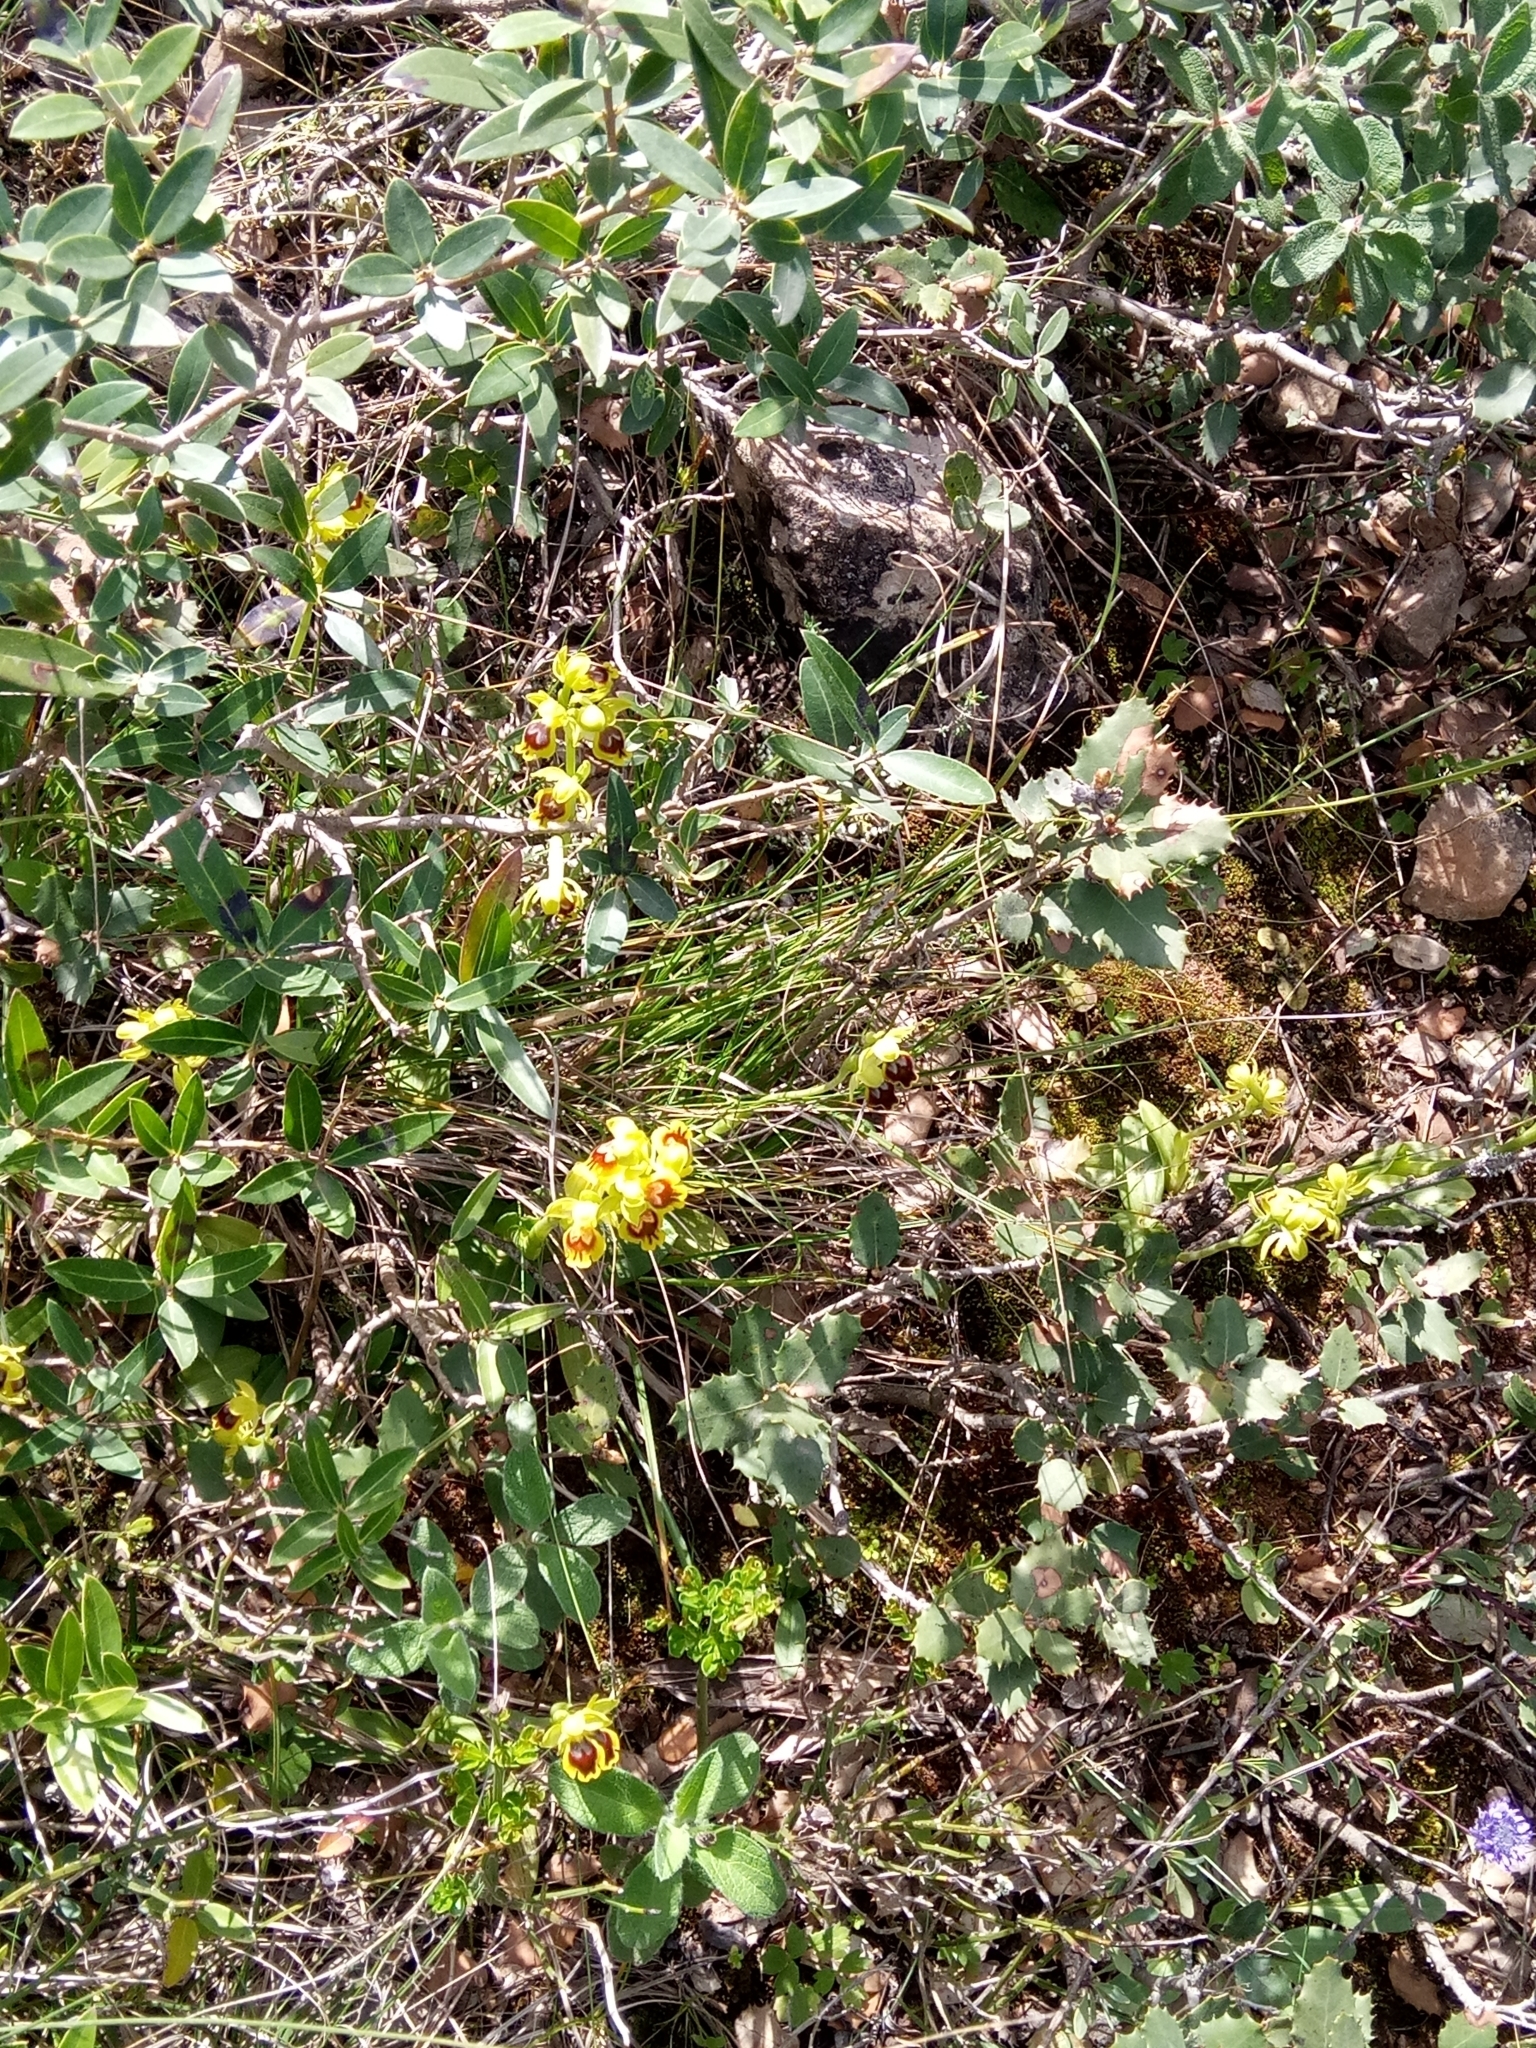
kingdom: Plantae
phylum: Tracheophyta
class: Liliopsida
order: Asparagales
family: Orchidaceae
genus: Ophrys
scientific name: Ophrys battandieri
